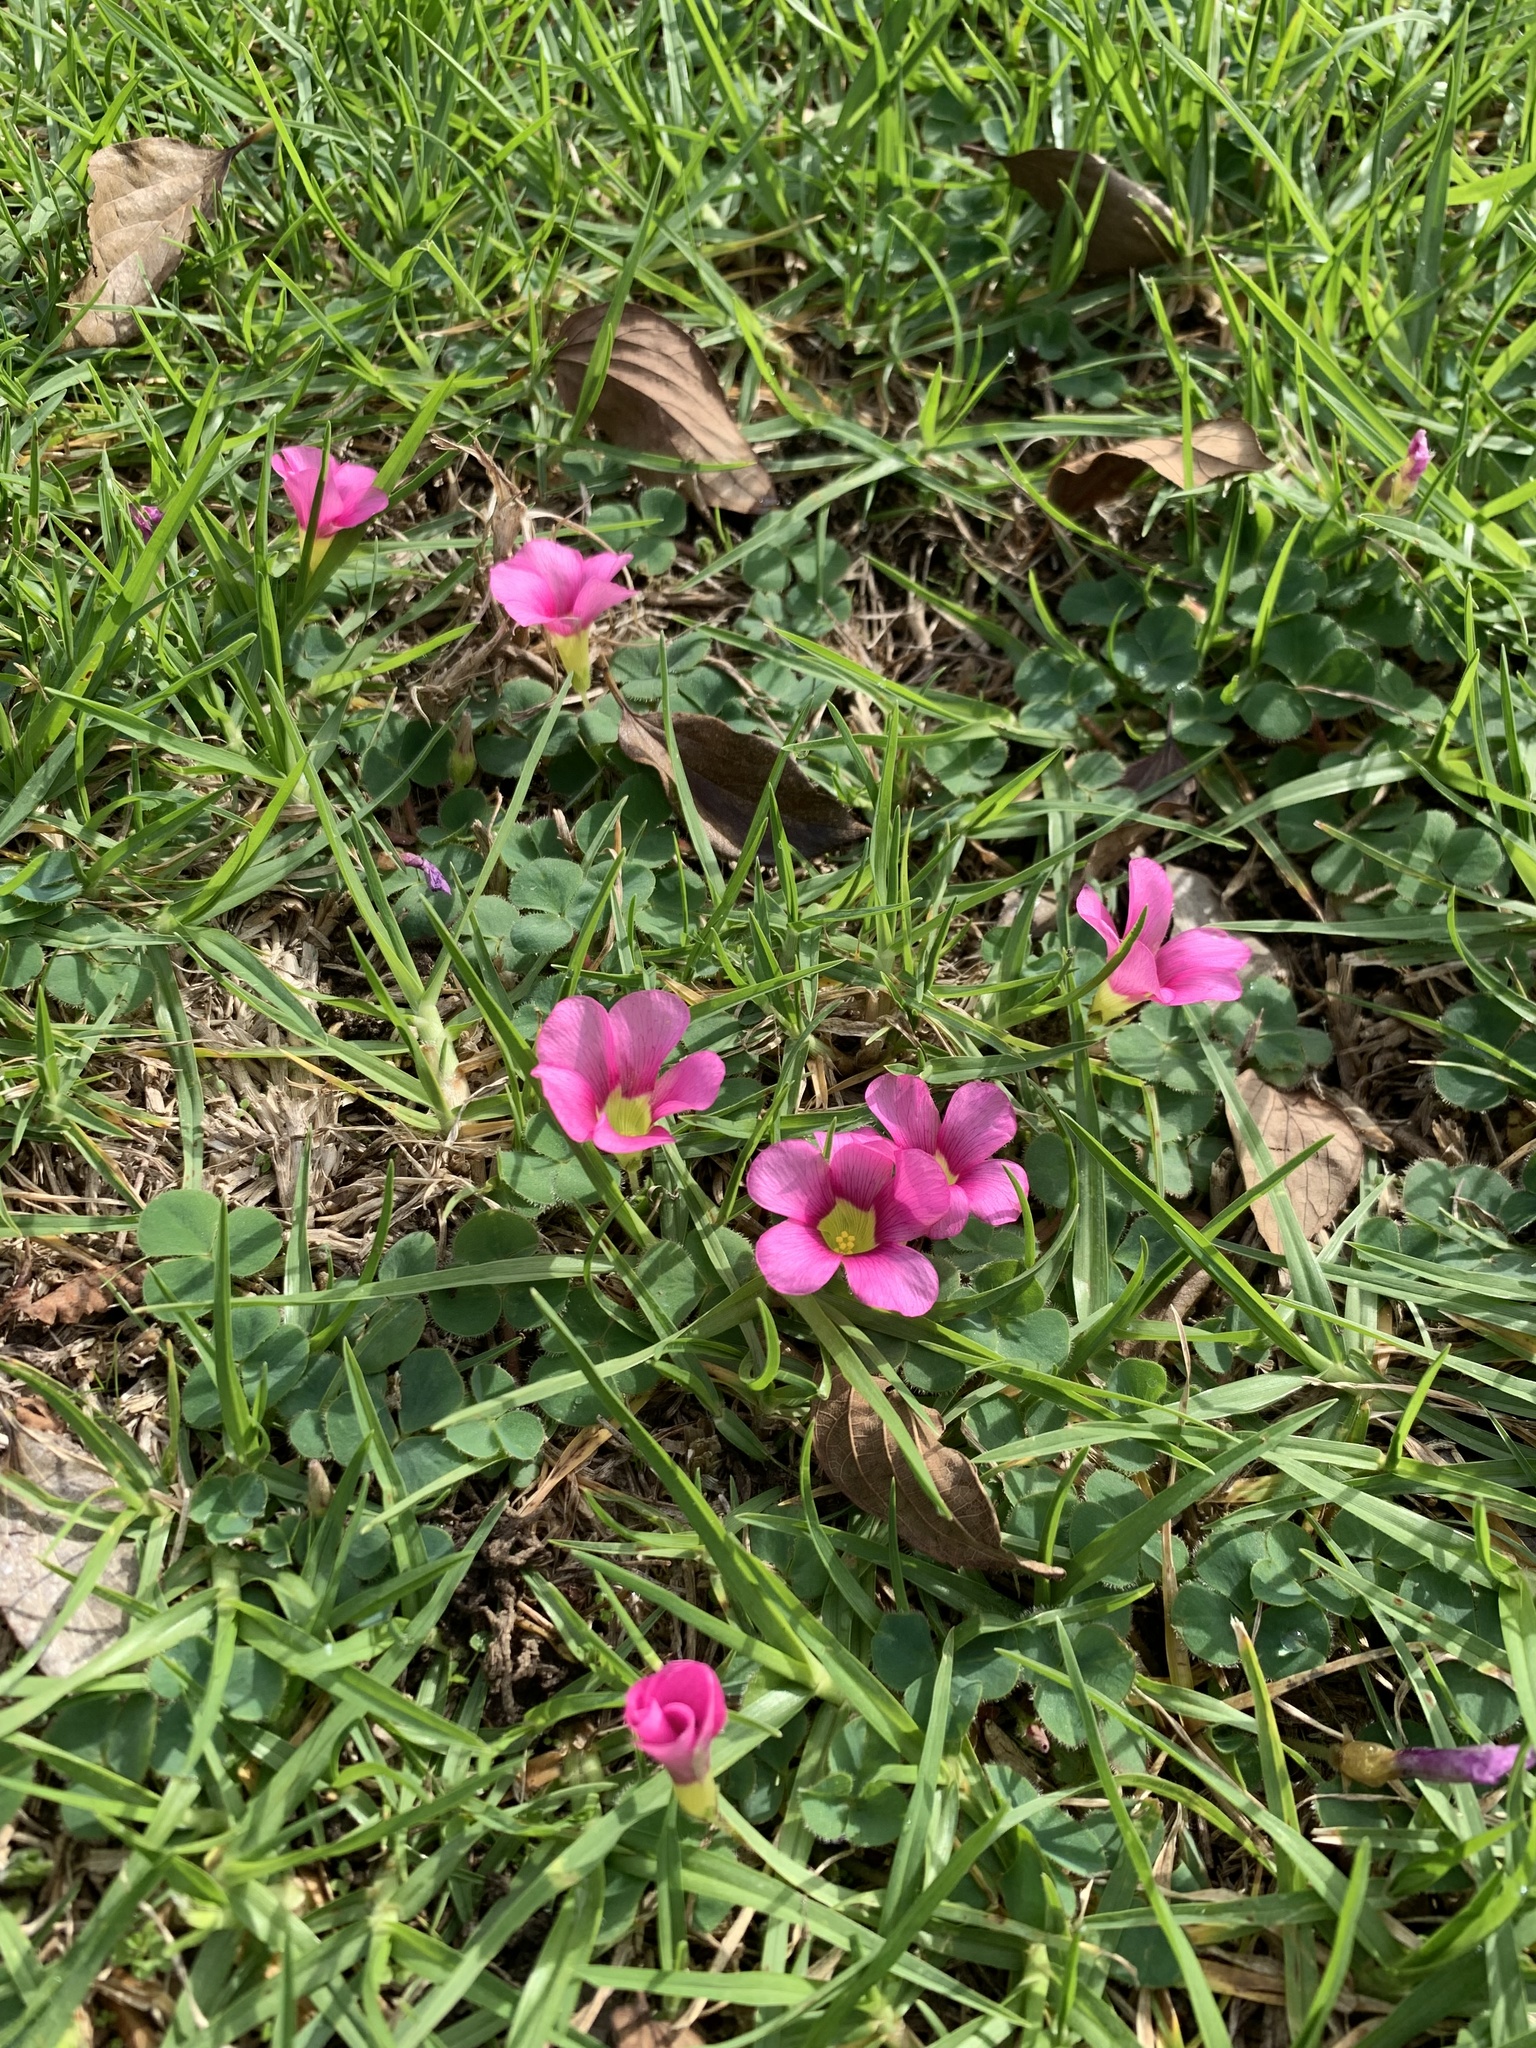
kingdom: Plantae
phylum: Tracheophyta
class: Magnoliopsida
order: Oxalidales
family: Oxalidaceae
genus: Oxalis
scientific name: Oxalis purpurea
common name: Purple woodsorrel
